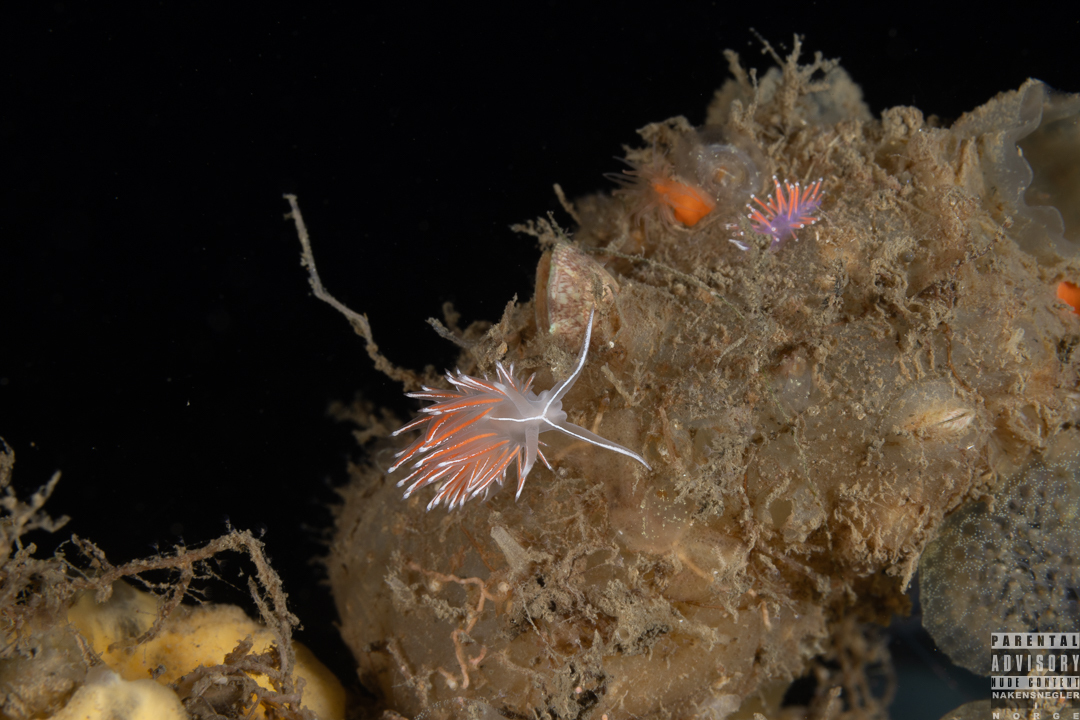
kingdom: Animalia
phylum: Mollusca
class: Gastropoda
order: Nudibranchia
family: Coryphellidae
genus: Coryphella
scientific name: Coryphella lineata
